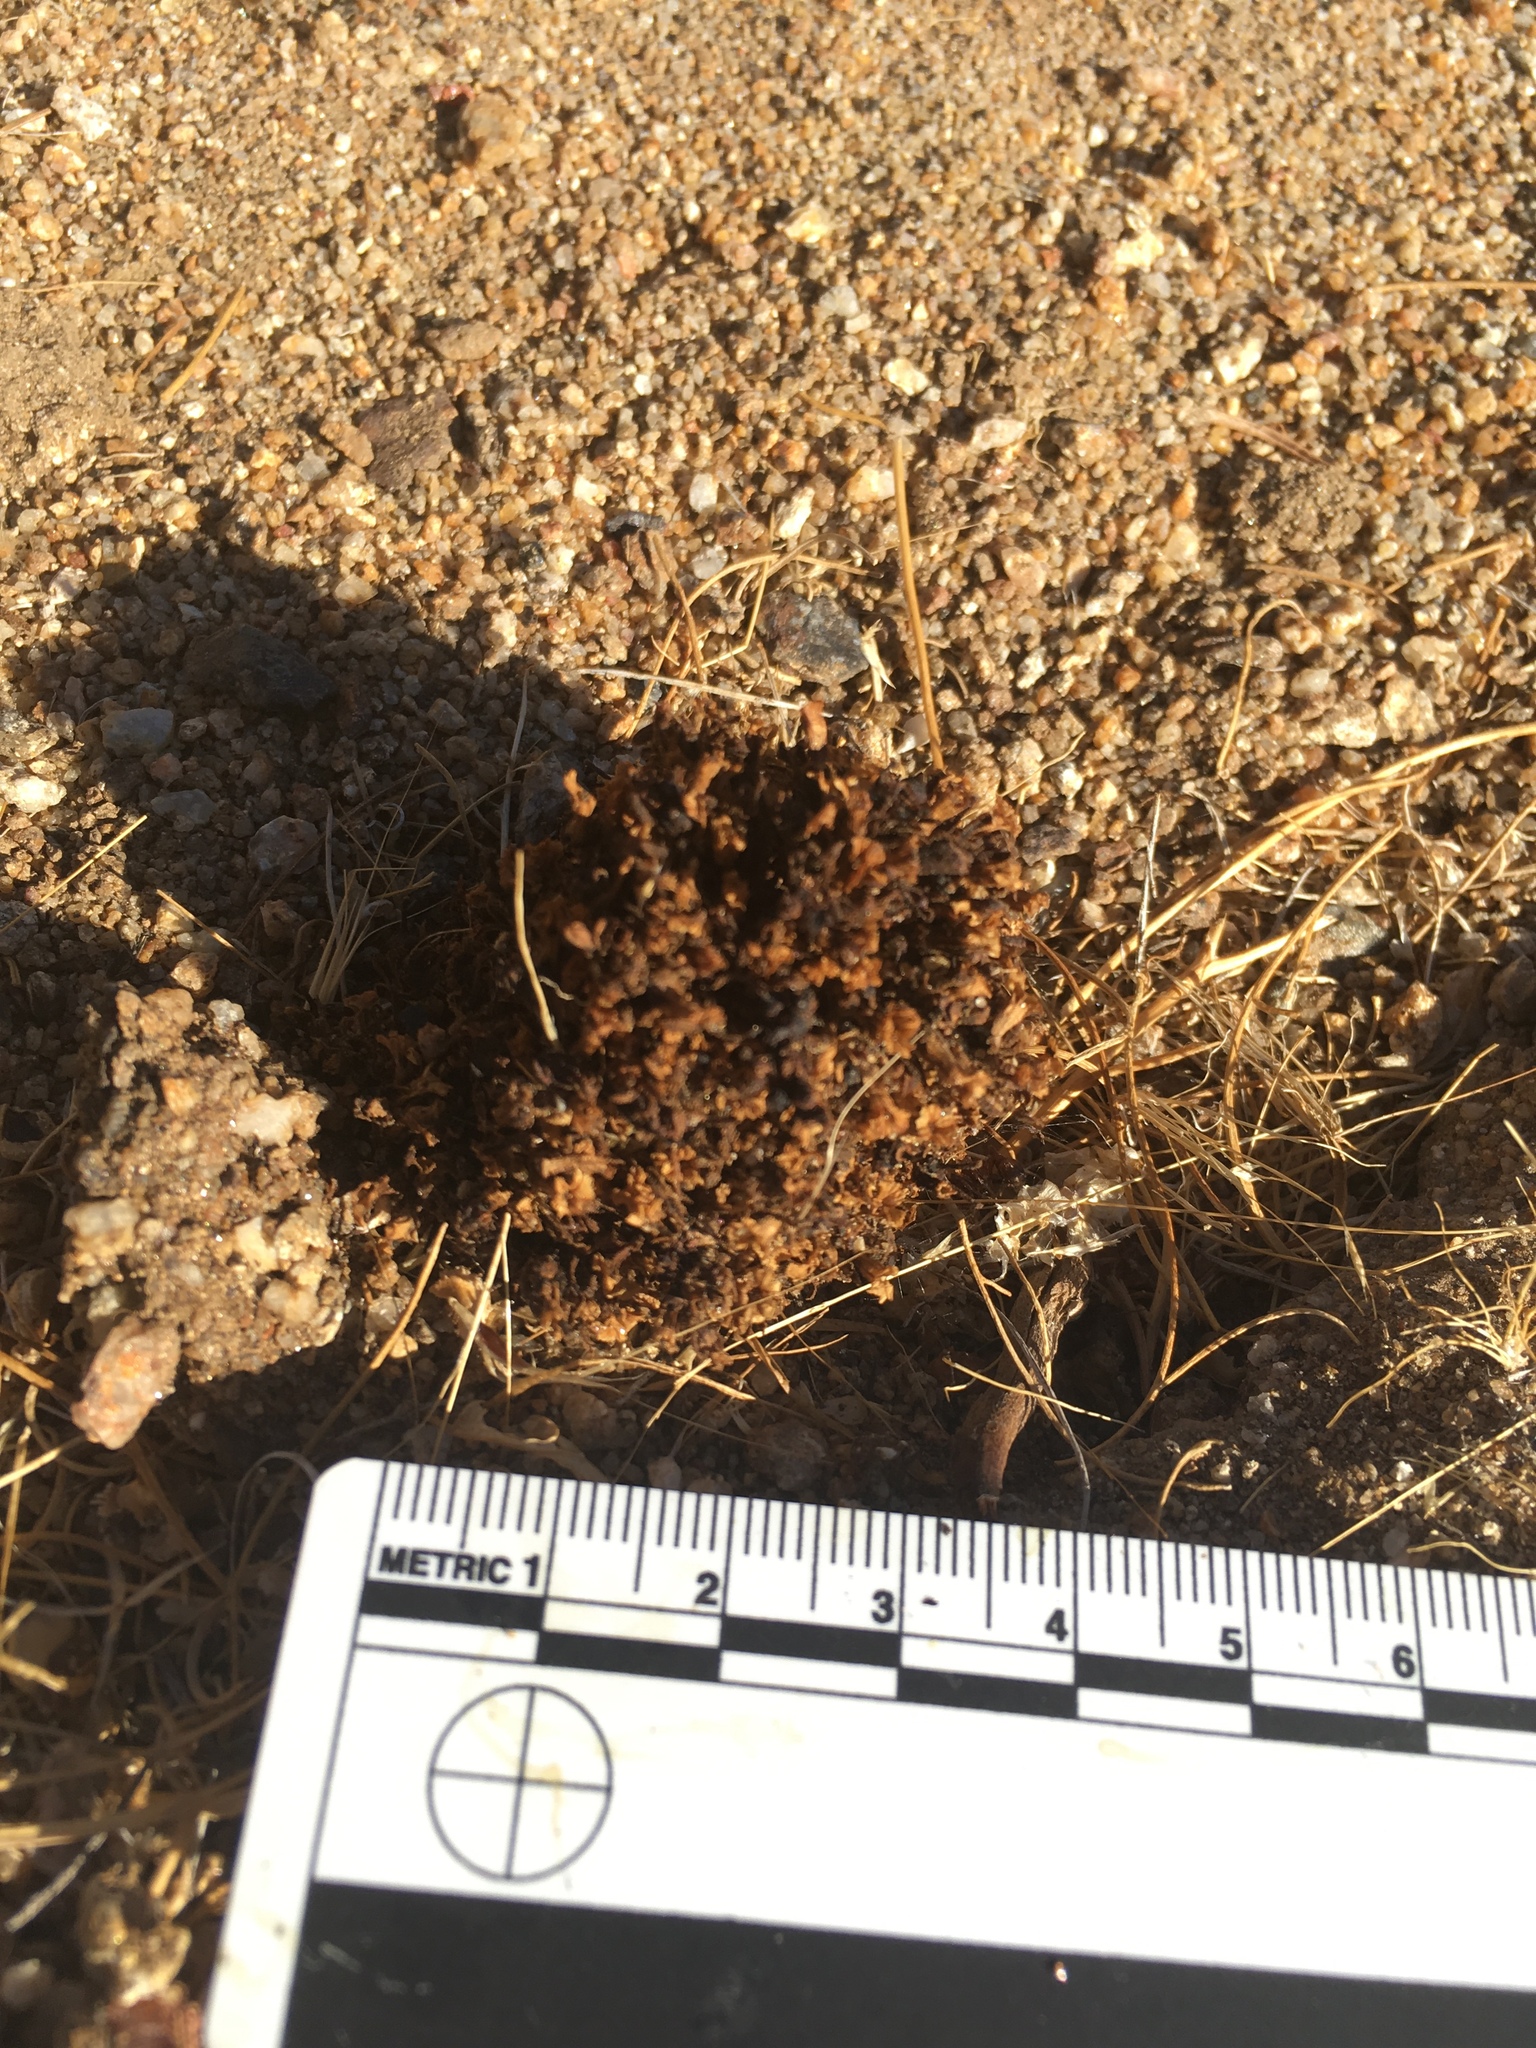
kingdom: Plantae
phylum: Tracheophyta
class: Magnoliopsida
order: Boraginales
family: Lennoaceae
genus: Pholisma
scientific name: Pholisma arenarium
